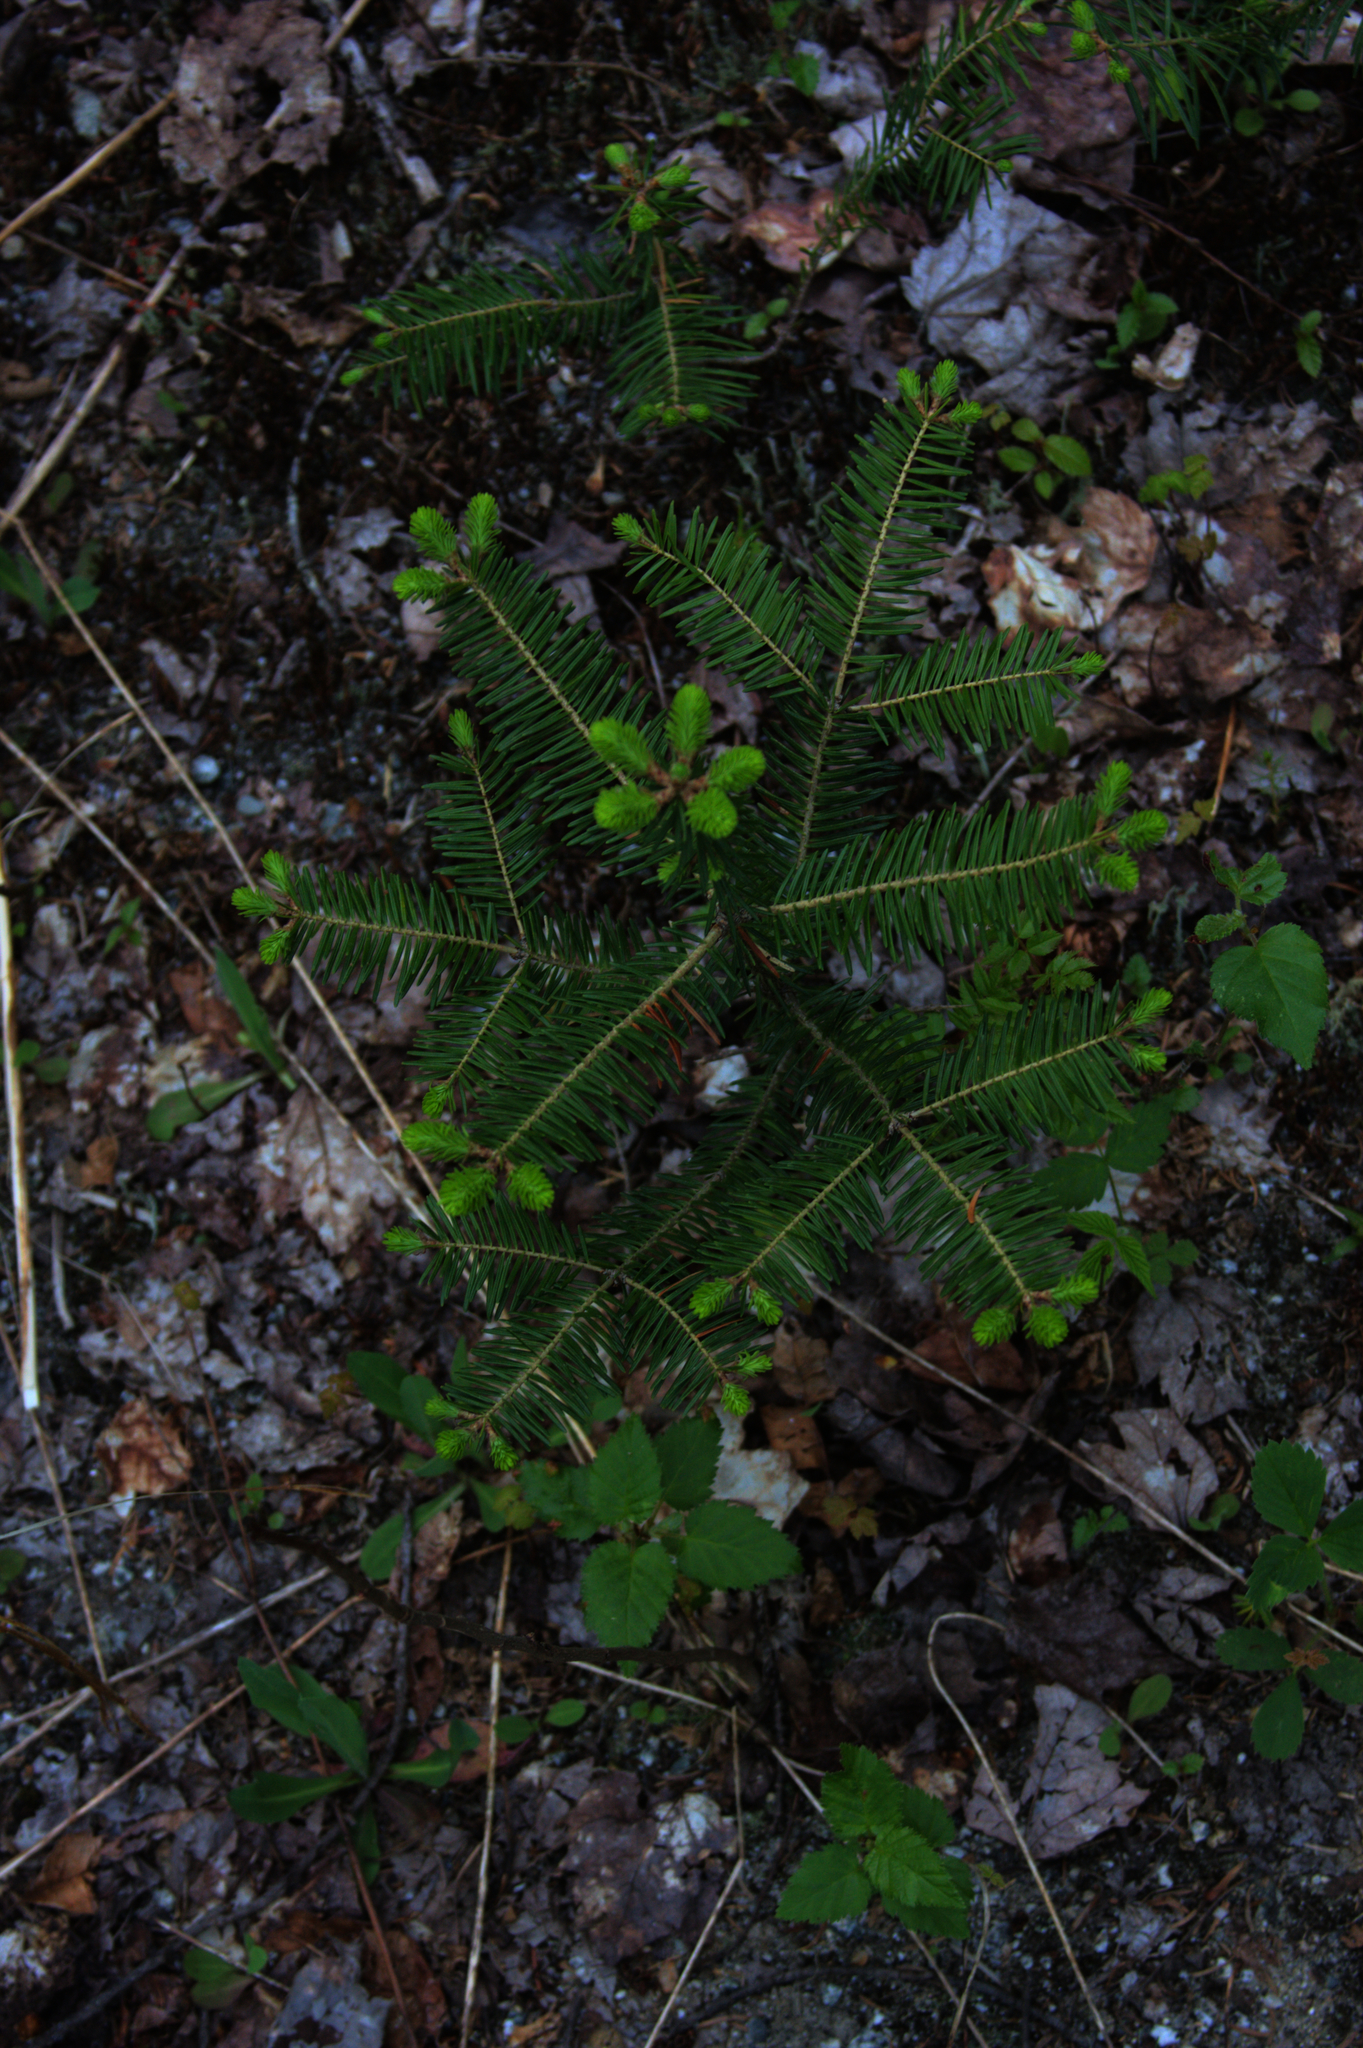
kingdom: Plantae
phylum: Tracheophyta
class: Pinopsida
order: Pinales
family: Pinaceae
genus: Abies
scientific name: Abies balsamea
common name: Balsam fir
